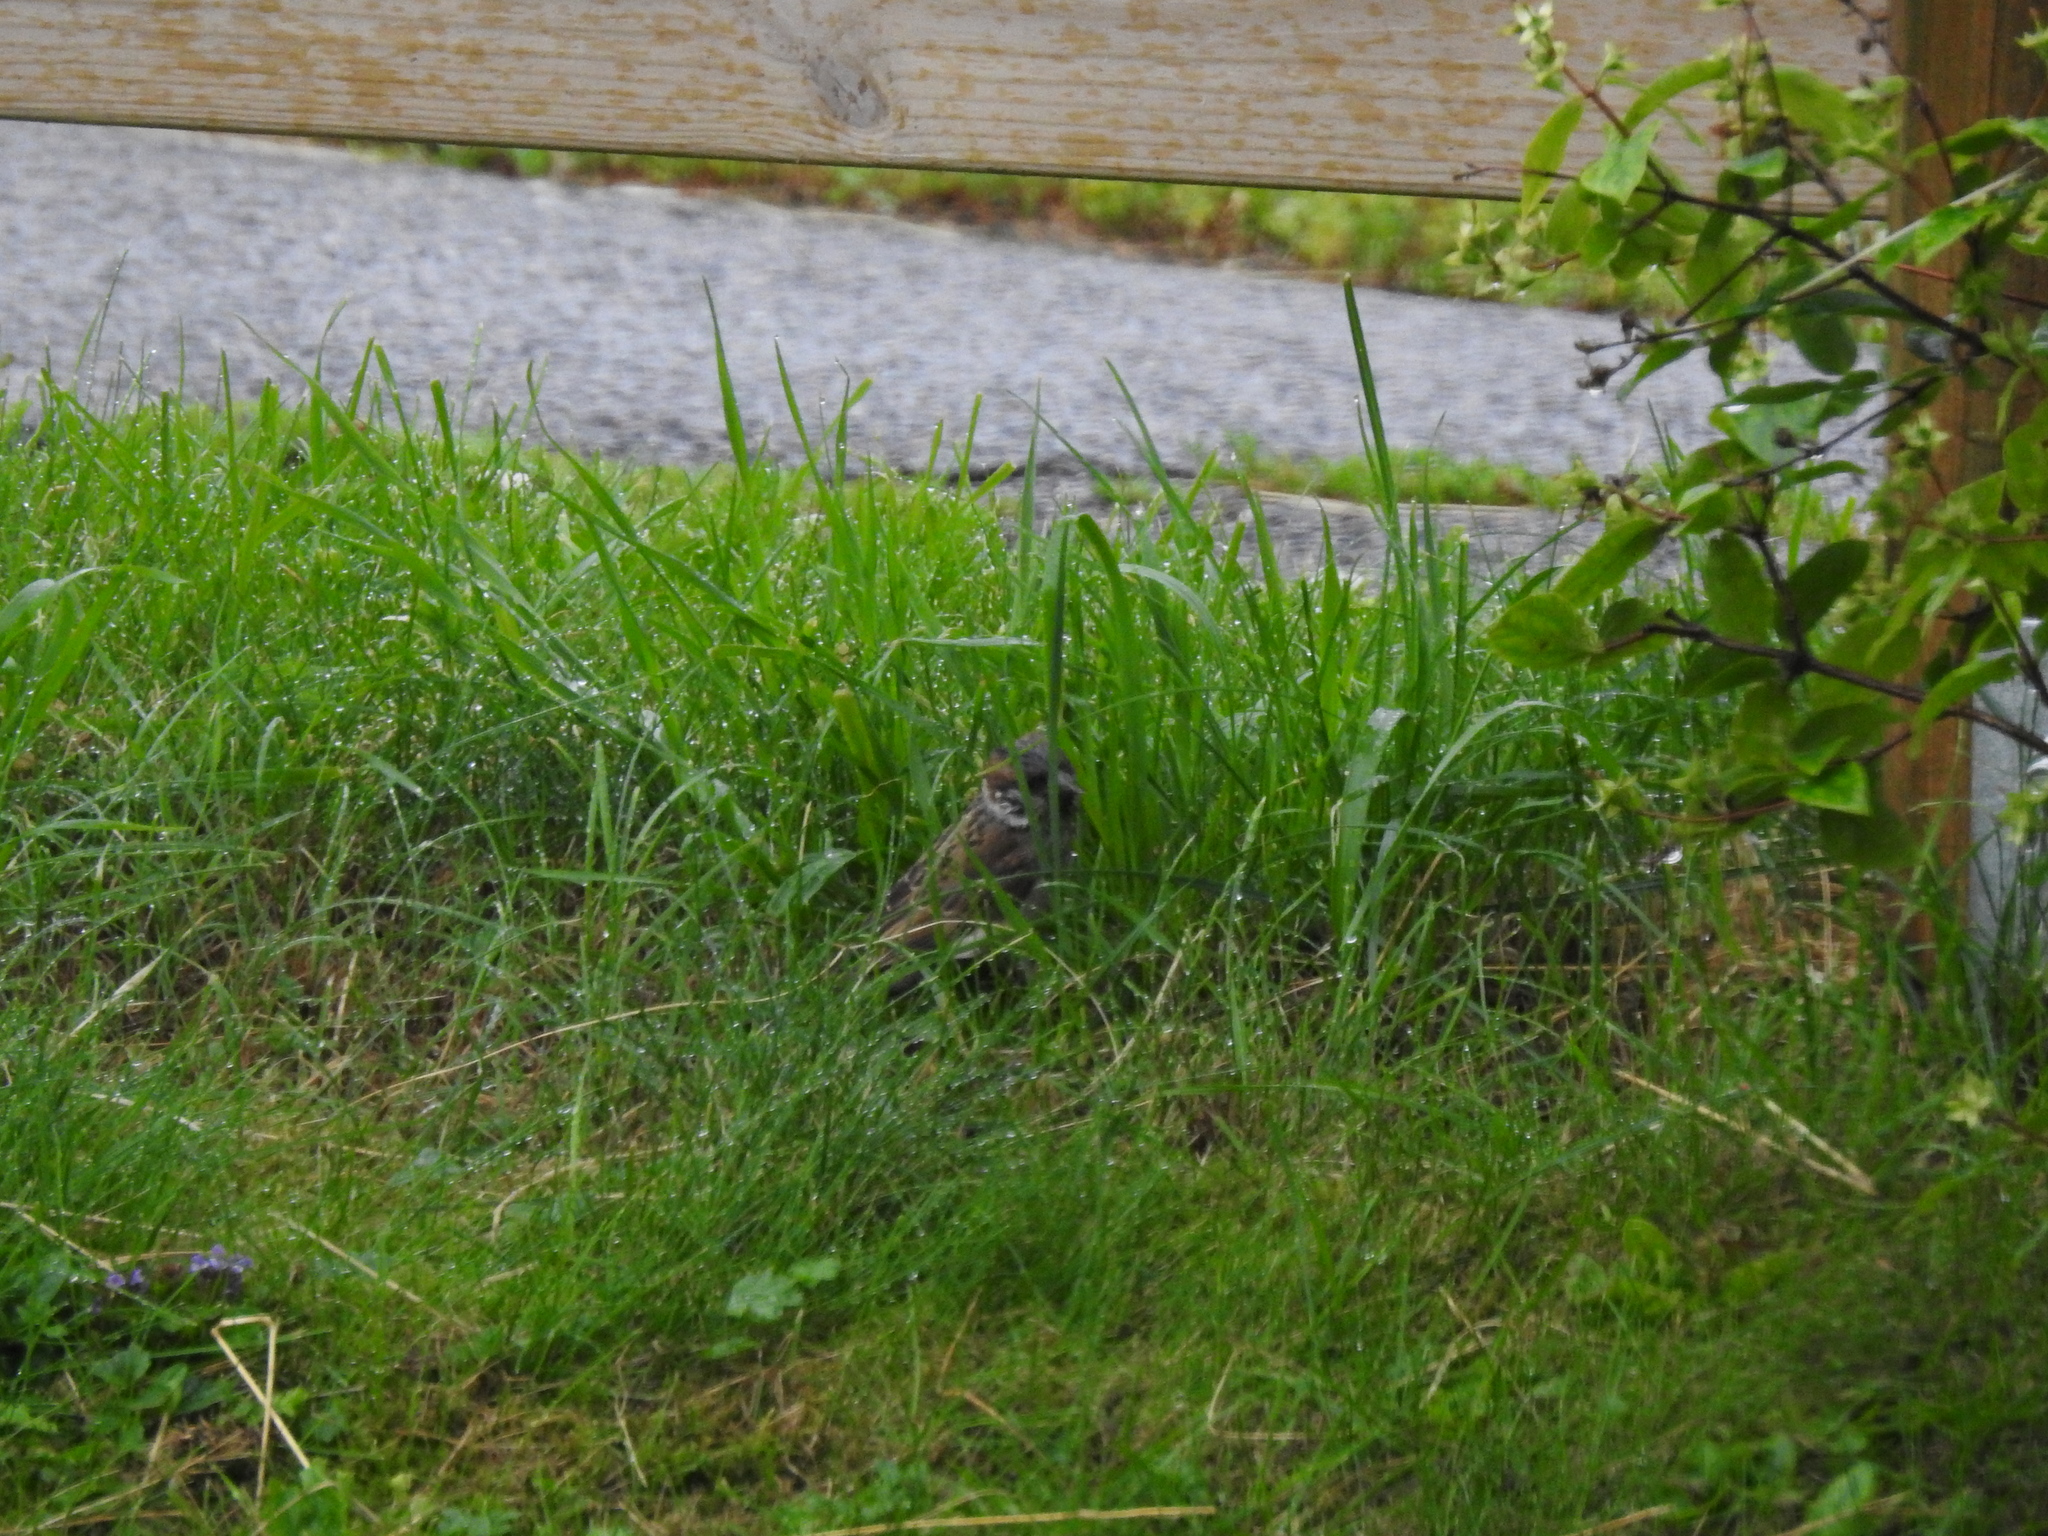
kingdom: Animalia
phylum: Chordata
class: Aves
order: Passeriformes
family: Passeridae
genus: Passer
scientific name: Passer montanus
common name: Eurasian tree sparrow
